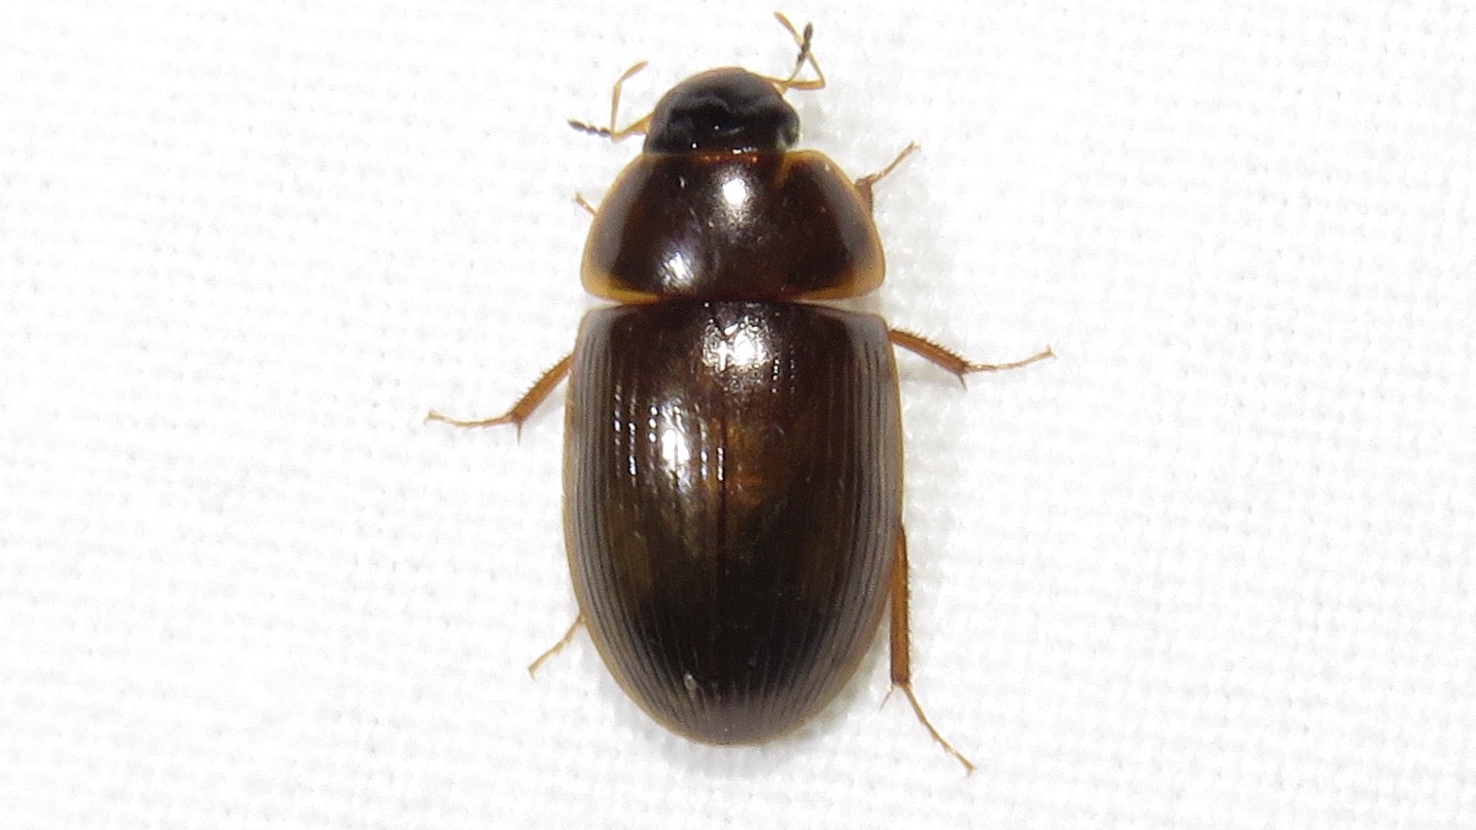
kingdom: Animalia
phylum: Arthropoda
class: Insecta
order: Coleoptera
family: Hydrophilidae
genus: Cymbiodyta
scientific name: Cymbiodyta bifida
